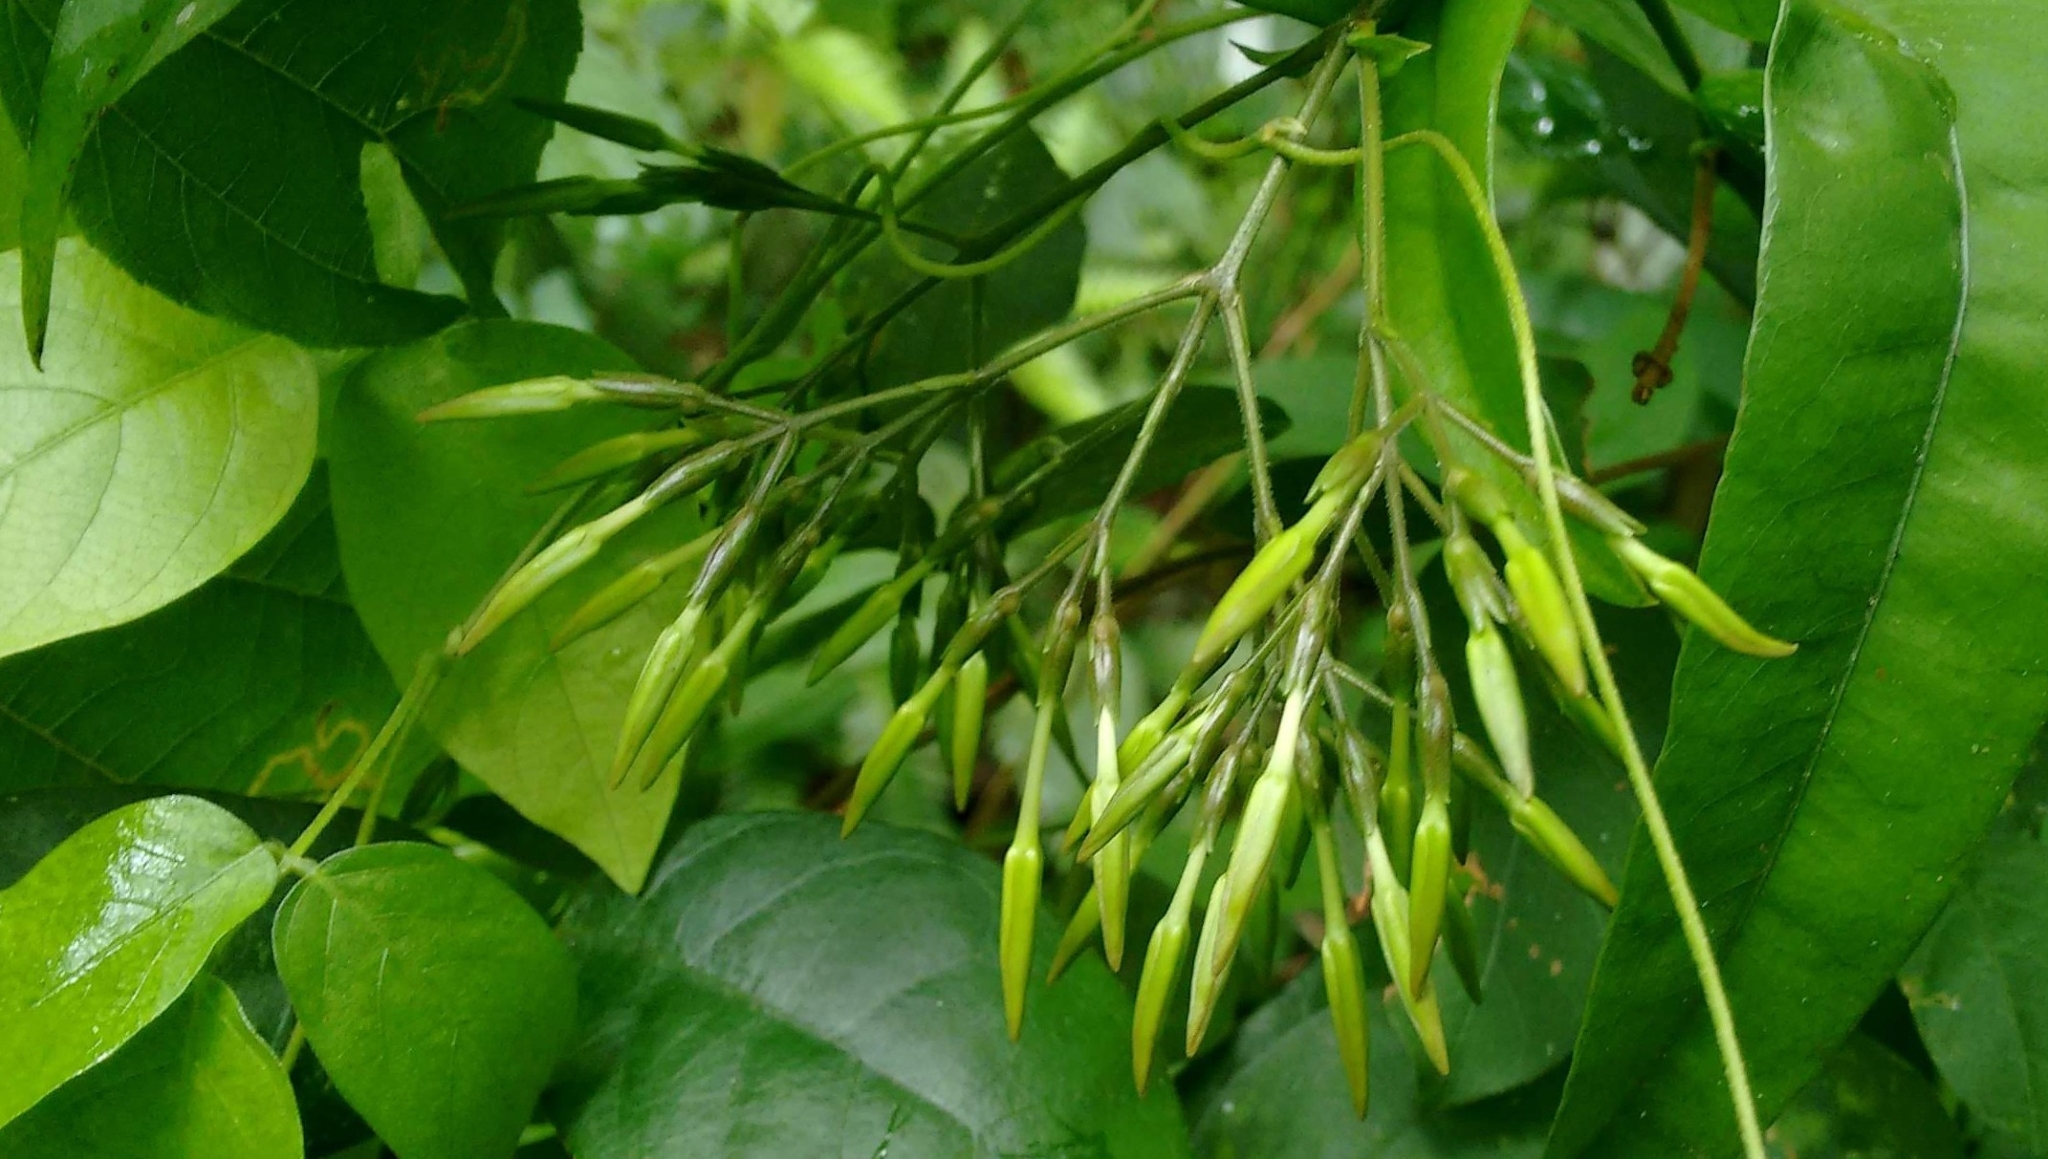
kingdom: Plantae
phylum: Tracheophyta
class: Magnoliopsida
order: Gentianales
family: Rubiaceae
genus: Ixora
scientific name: Ixora malabarica
